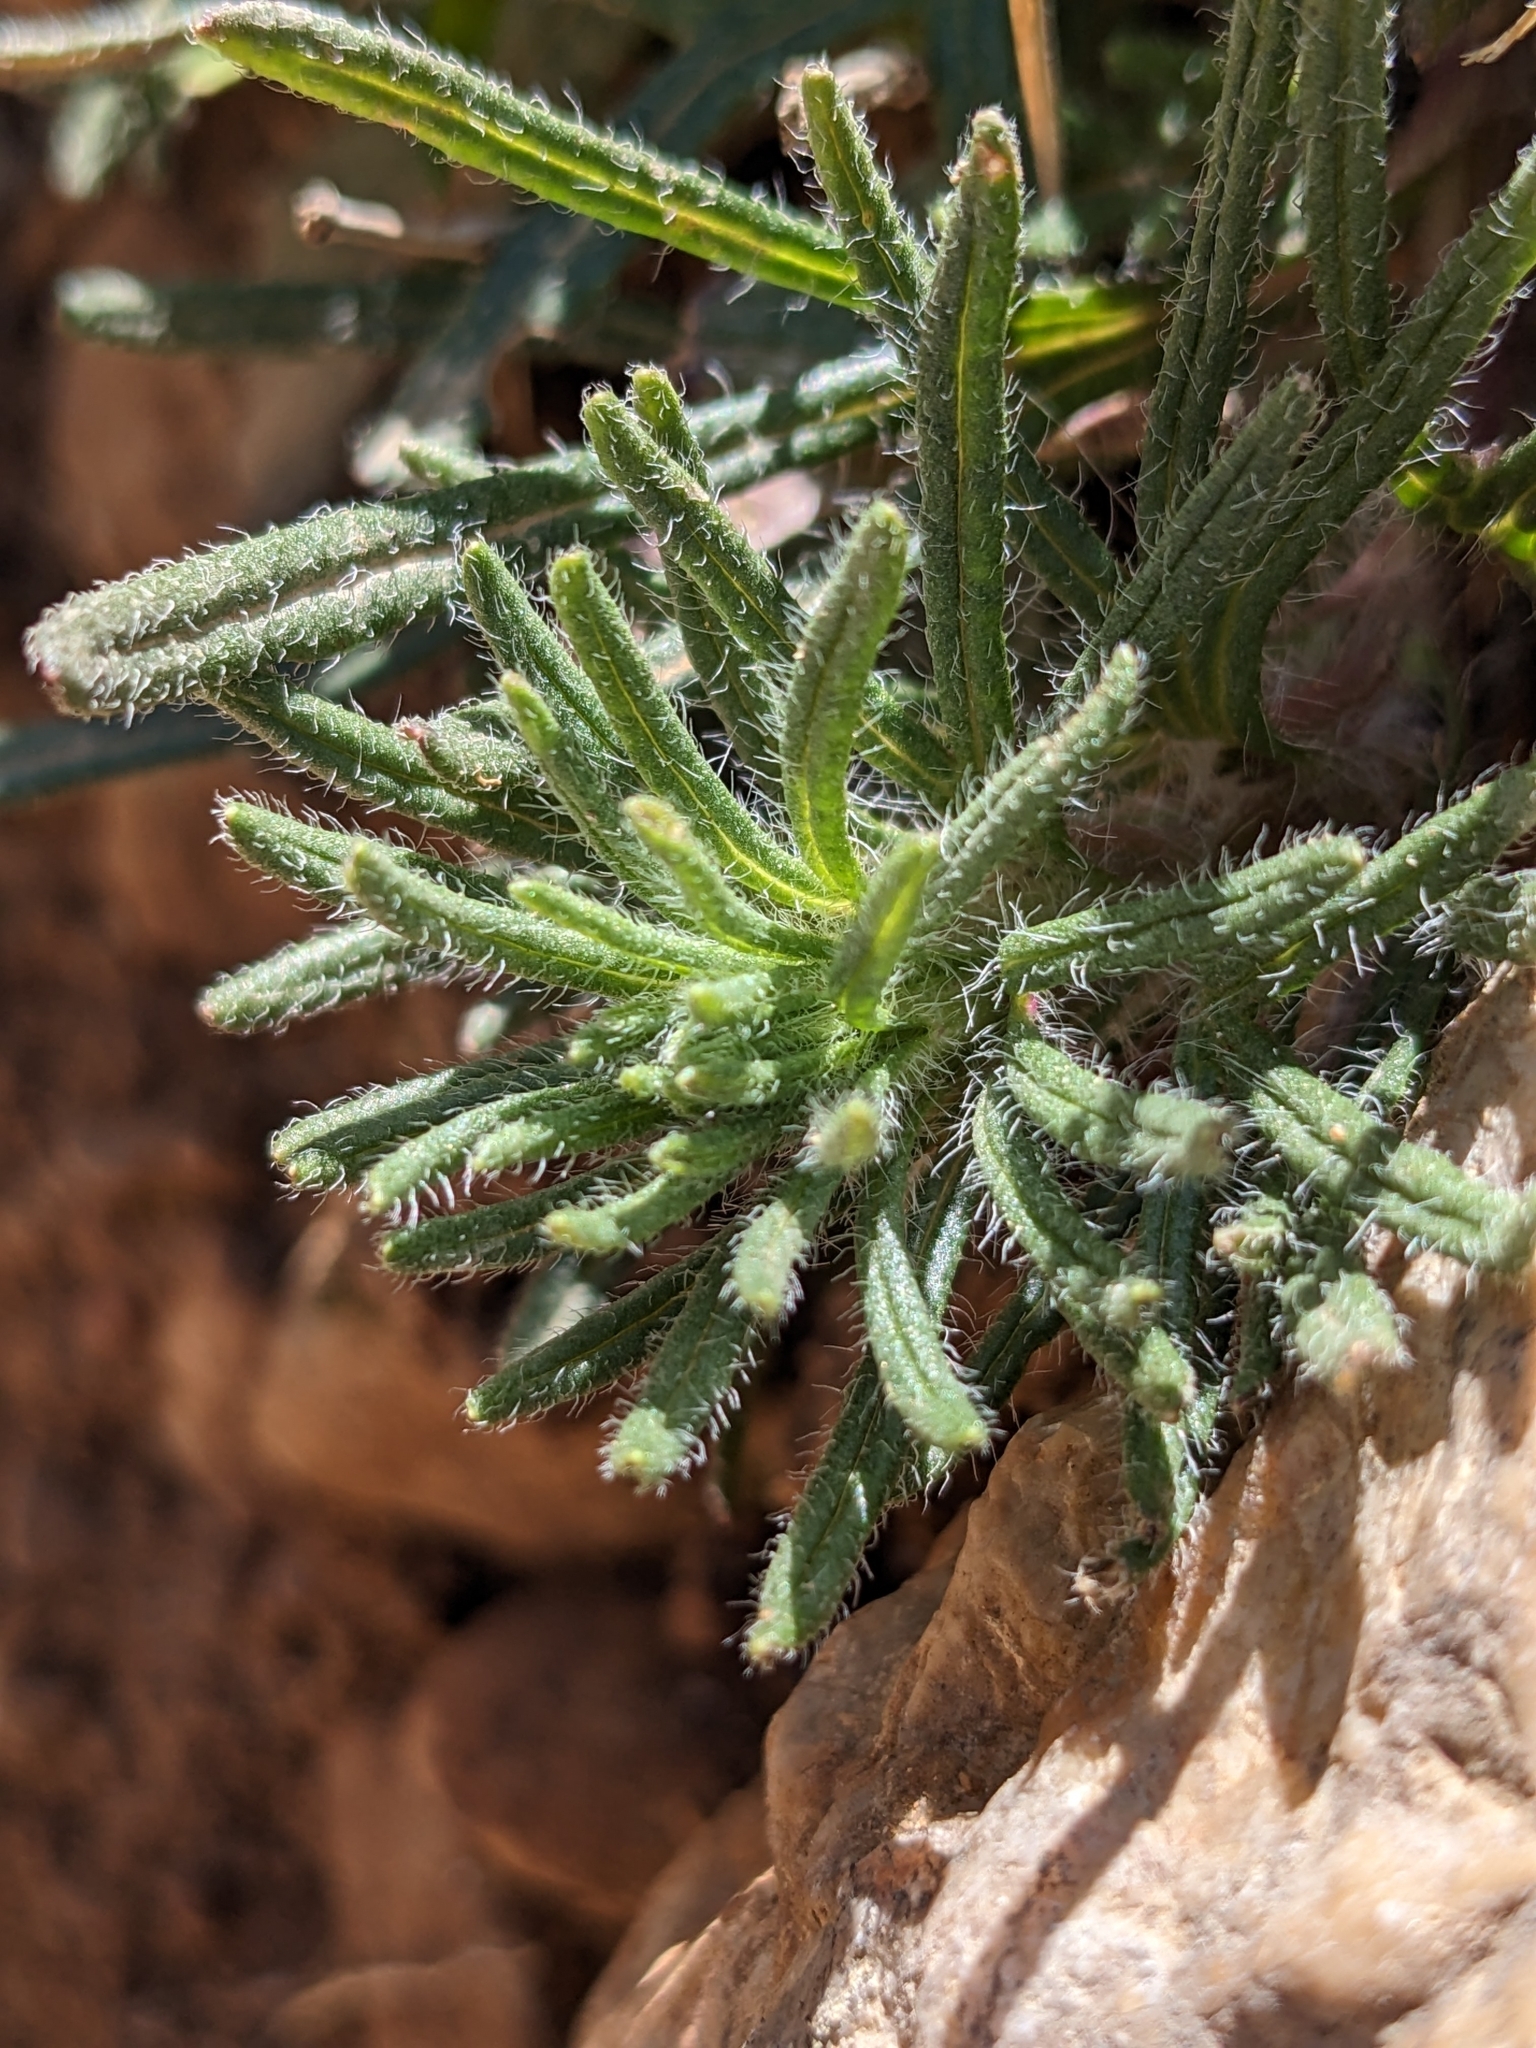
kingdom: Plantae
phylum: Tracheophyta
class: Magnoliopsida
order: Lamiales
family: Lamiaceae
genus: Ajuga
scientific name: Ajuga chamaepitys
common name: Ground-pine
